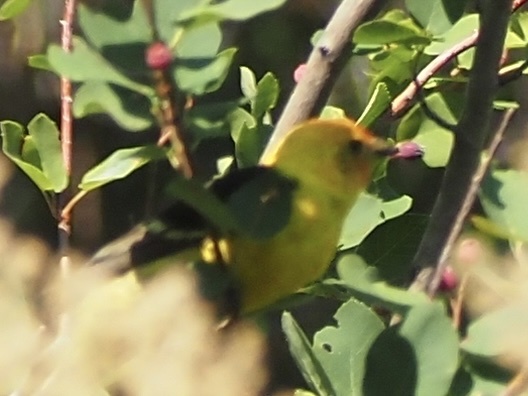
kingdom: Animalia
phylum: Chordata
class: Aves
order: Passeriformes
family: Cardinalidae
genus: Piranga
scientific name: Piranga ludoviciana
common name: Western tanager
